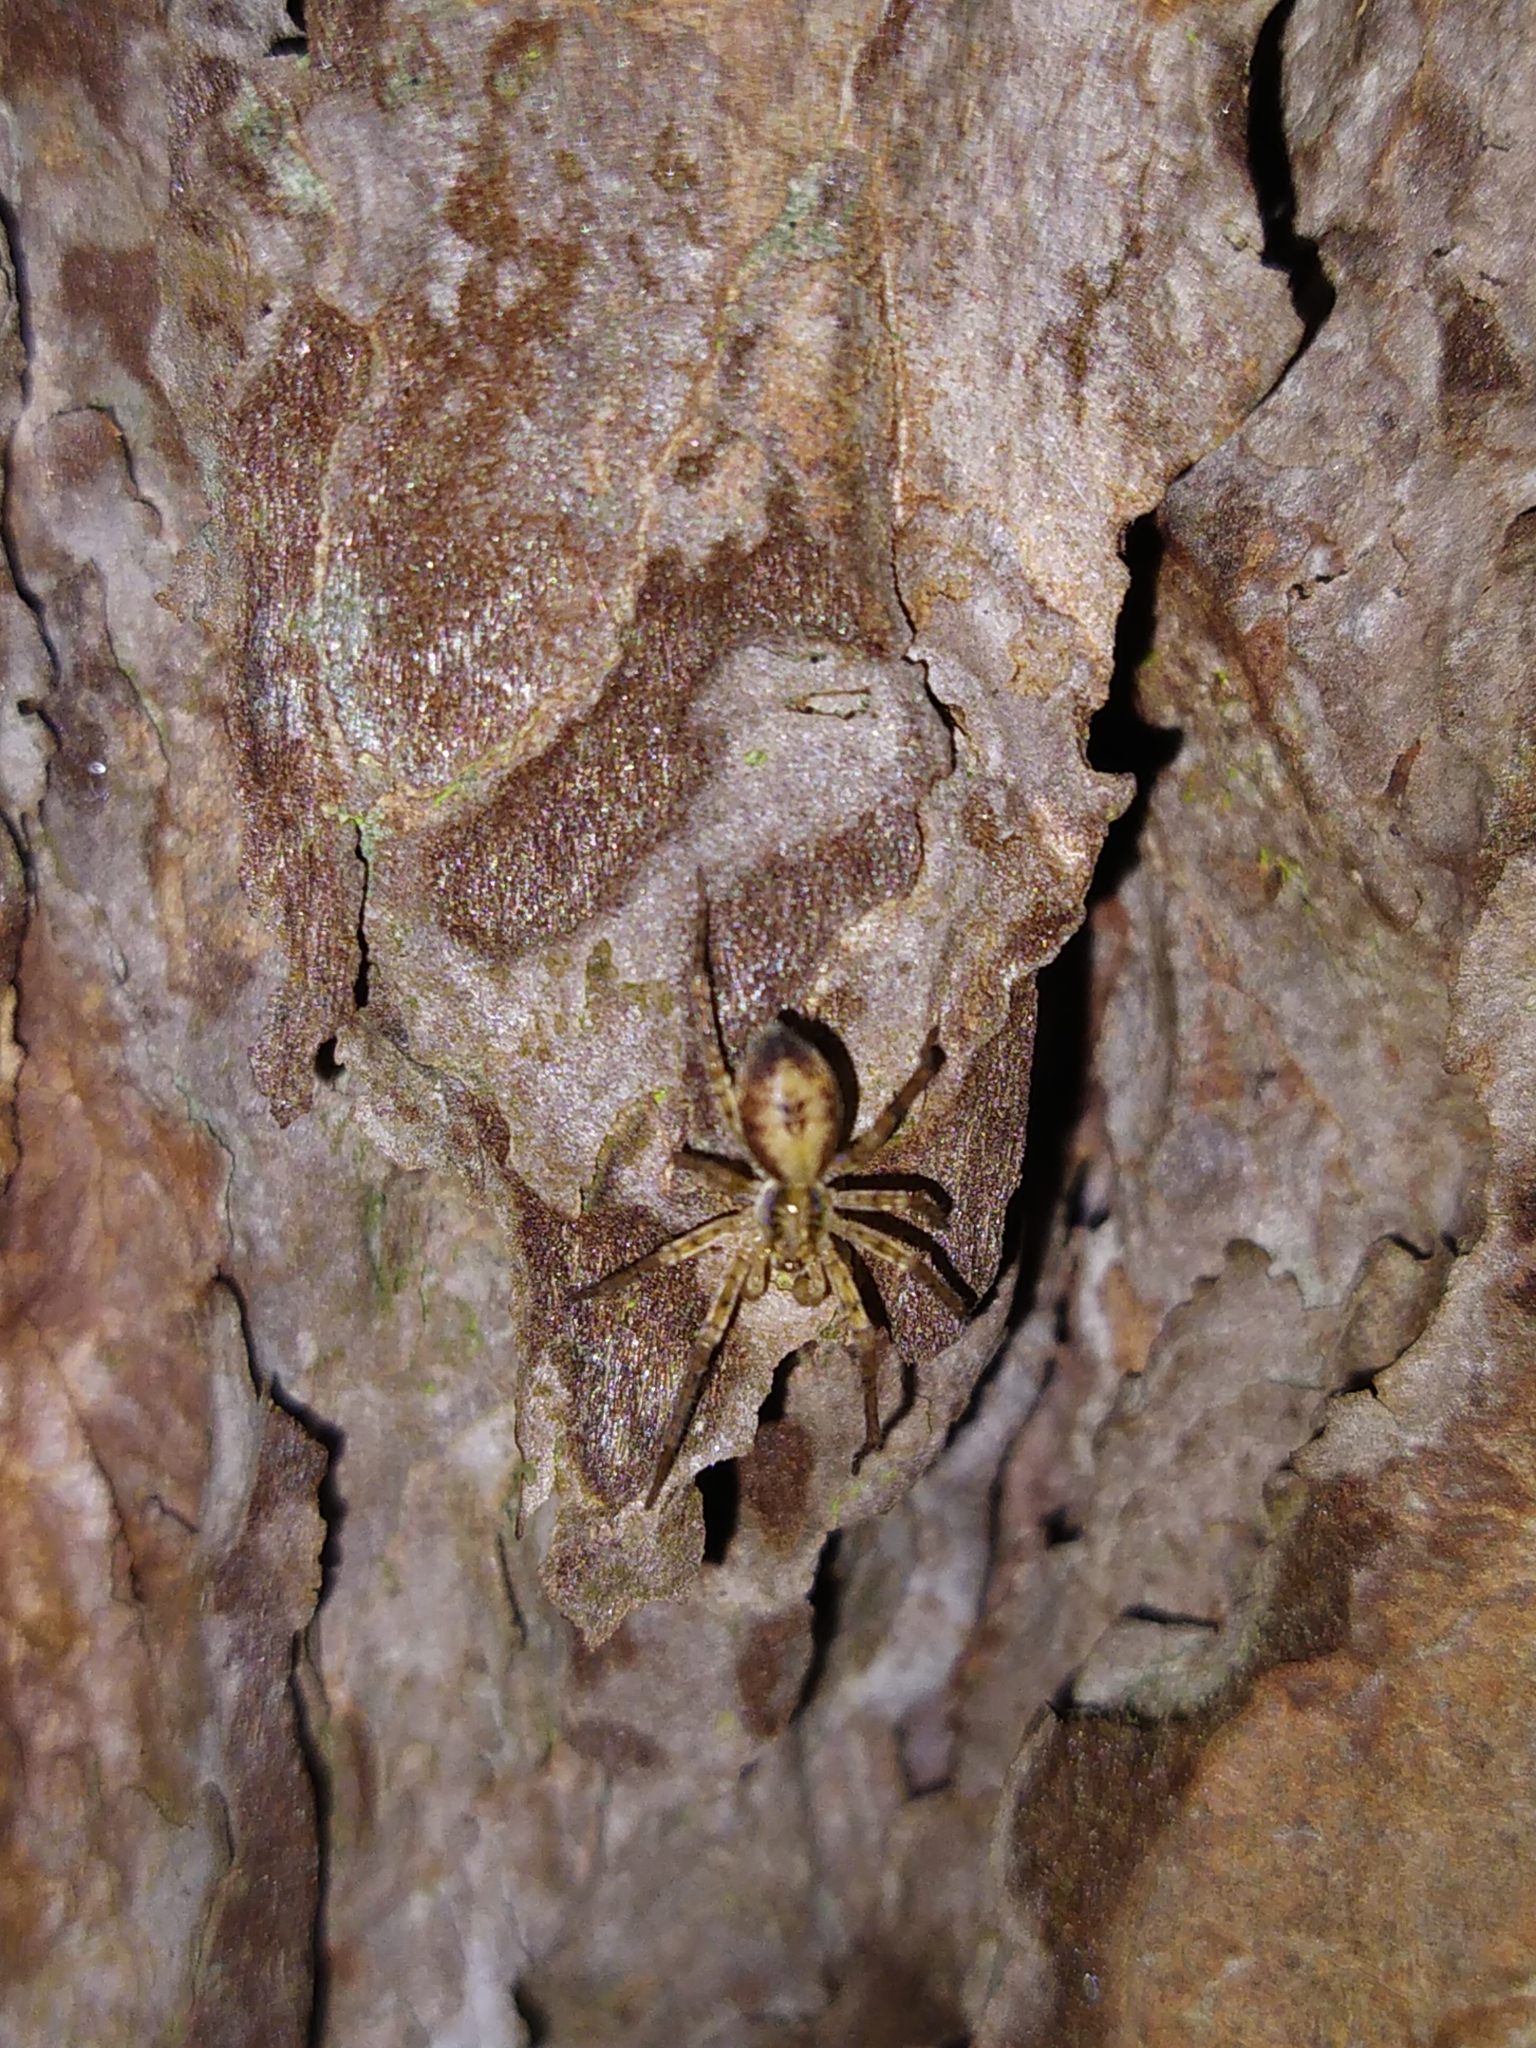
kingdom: Animalia
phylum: Arthropoda
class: Arachnida
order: Araneae
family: Anyphaenidae
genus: Anyphaena
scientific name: Anyphaena accentuata
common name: Buzzing spider
